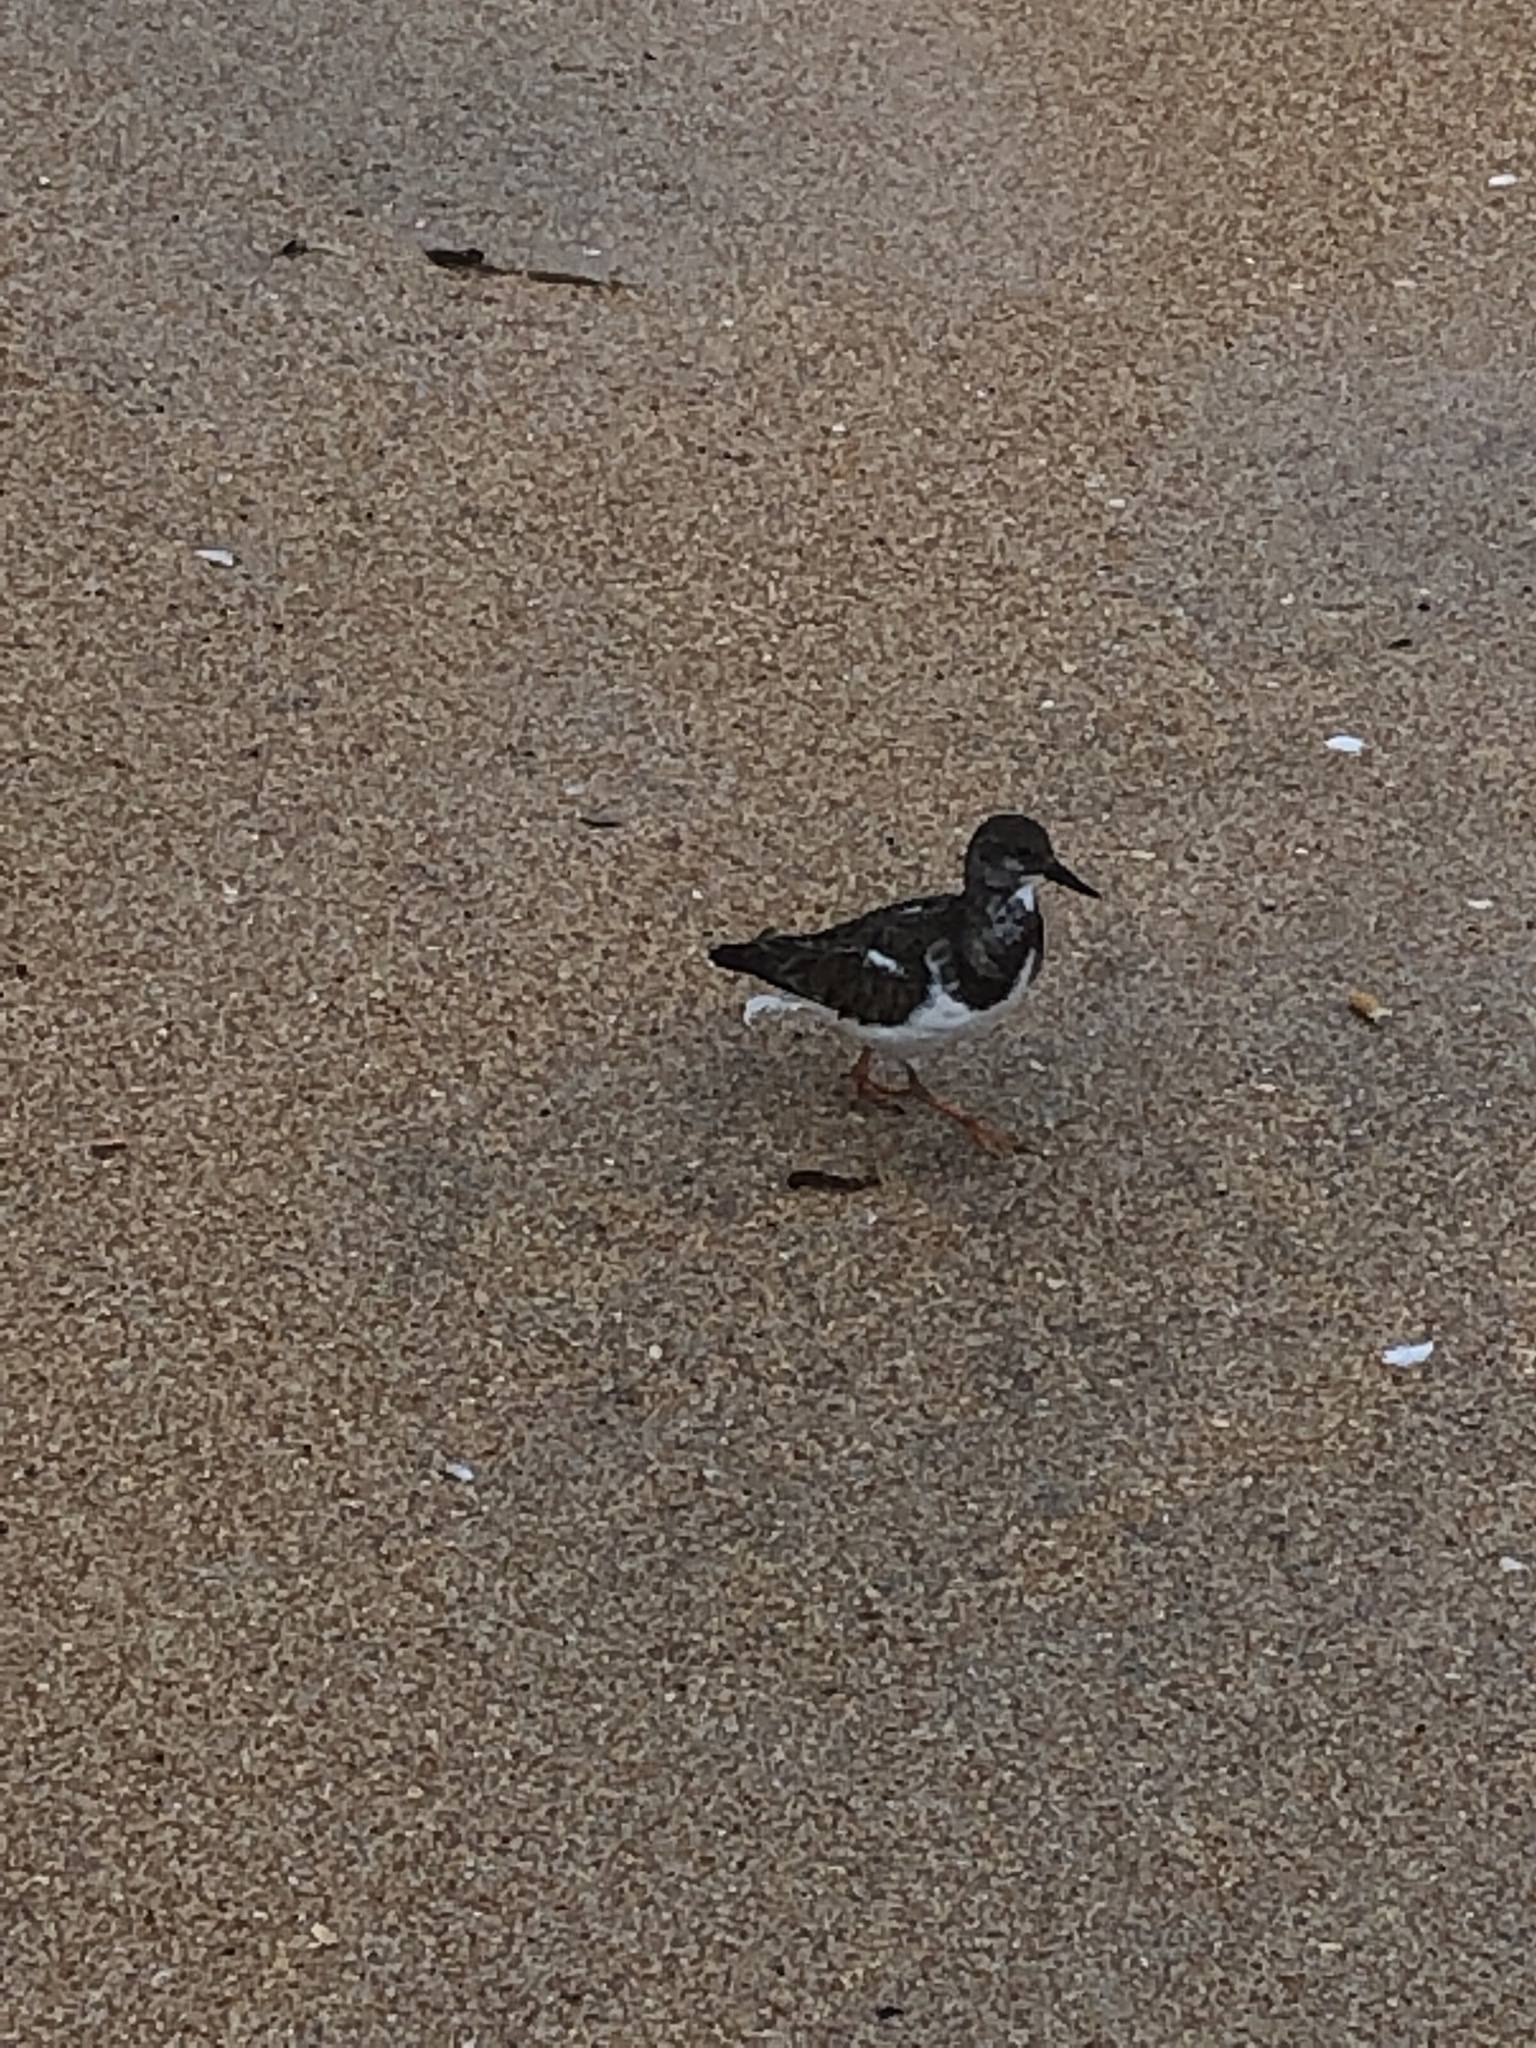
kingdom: Animalia
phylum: Chordata
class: Aves
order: Charadriiformes
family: Scolopacidae
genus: Arenaria
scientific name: Arenaria interpres
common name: Ruddy turnstone
